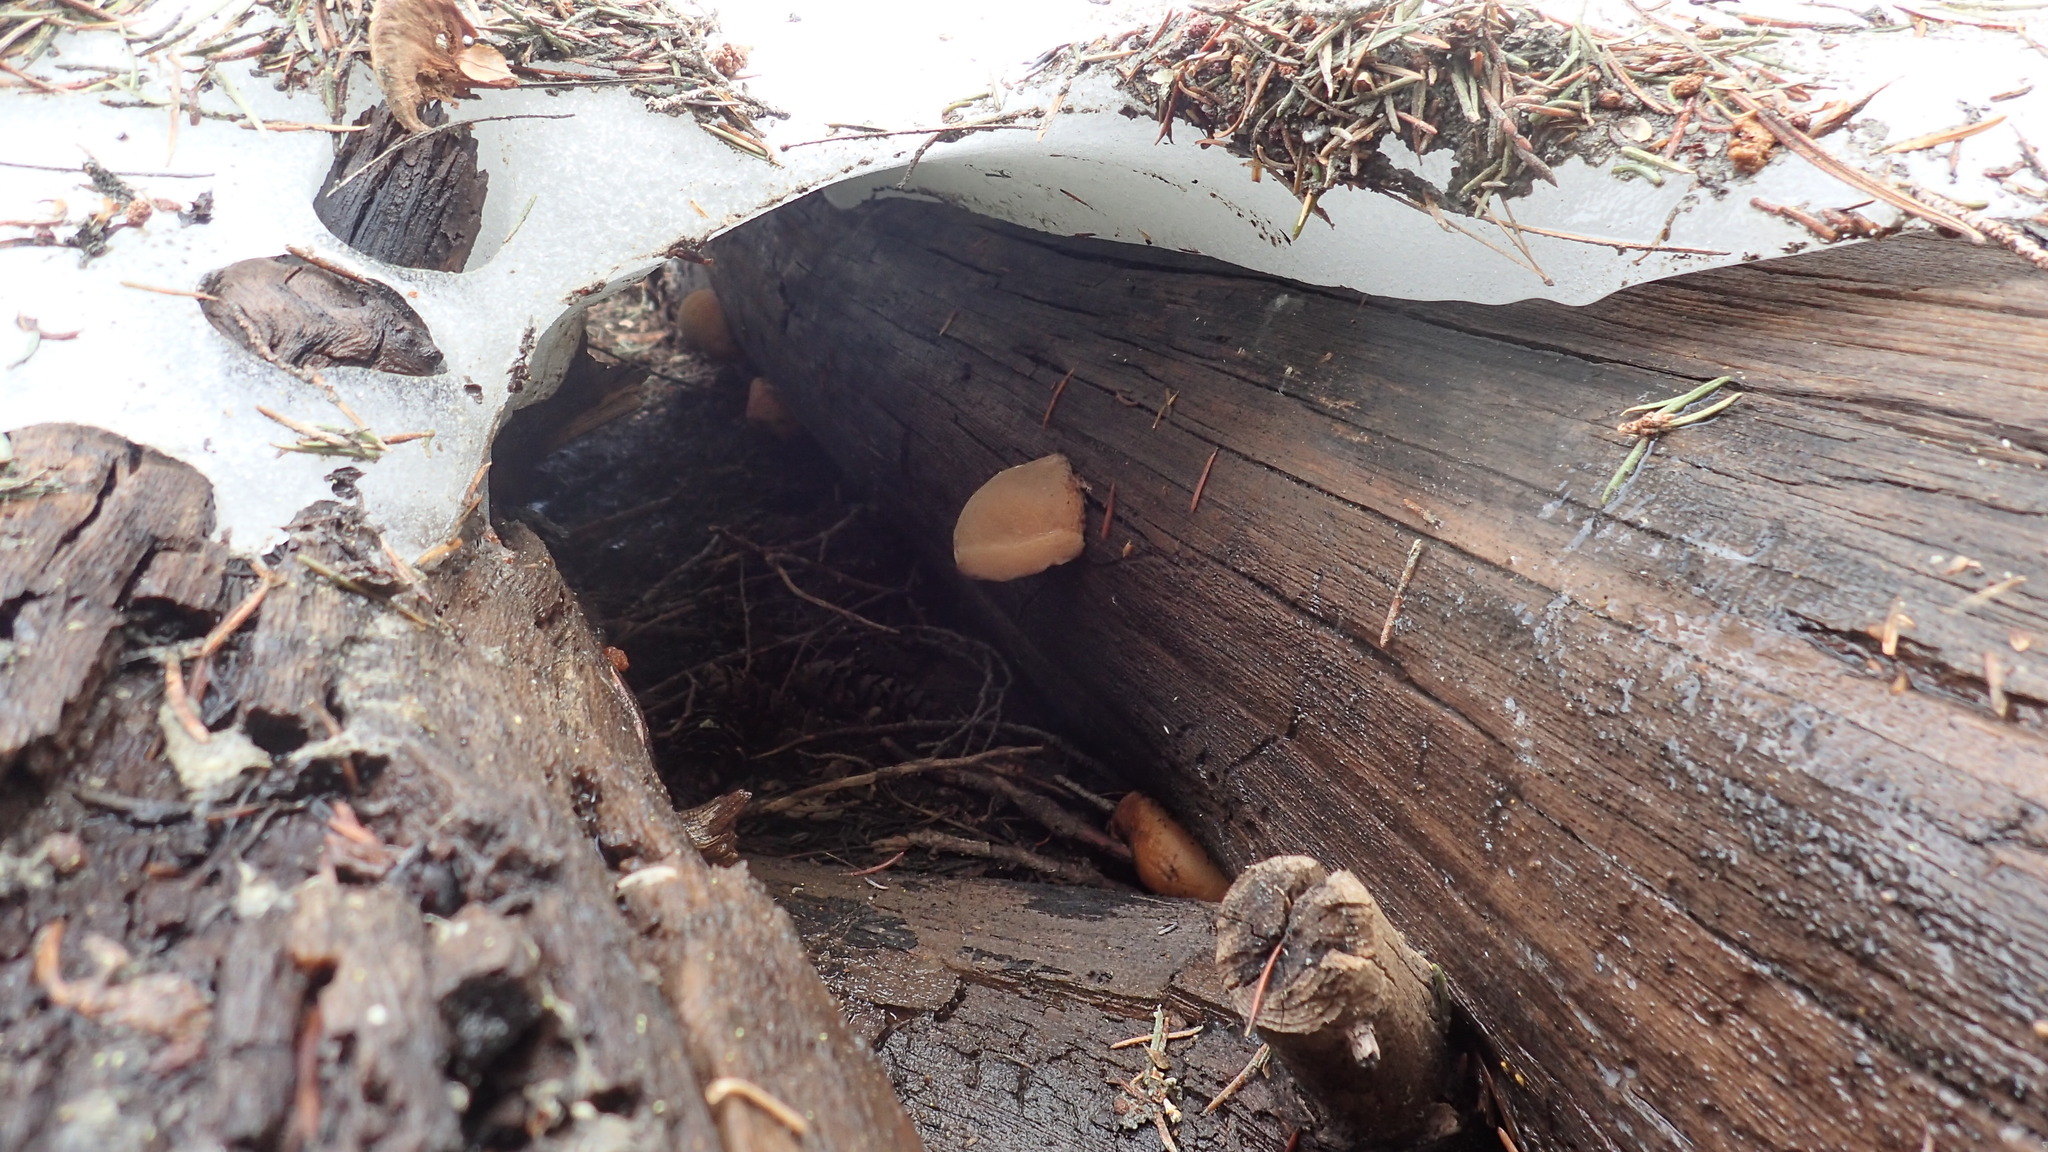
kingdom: Fungi
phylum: Basidiomycota
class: Agaricomycetes
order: Polyporales
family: Incrustoporiaceae
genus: Tyromyces
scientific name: Tyromyces leucospongius
